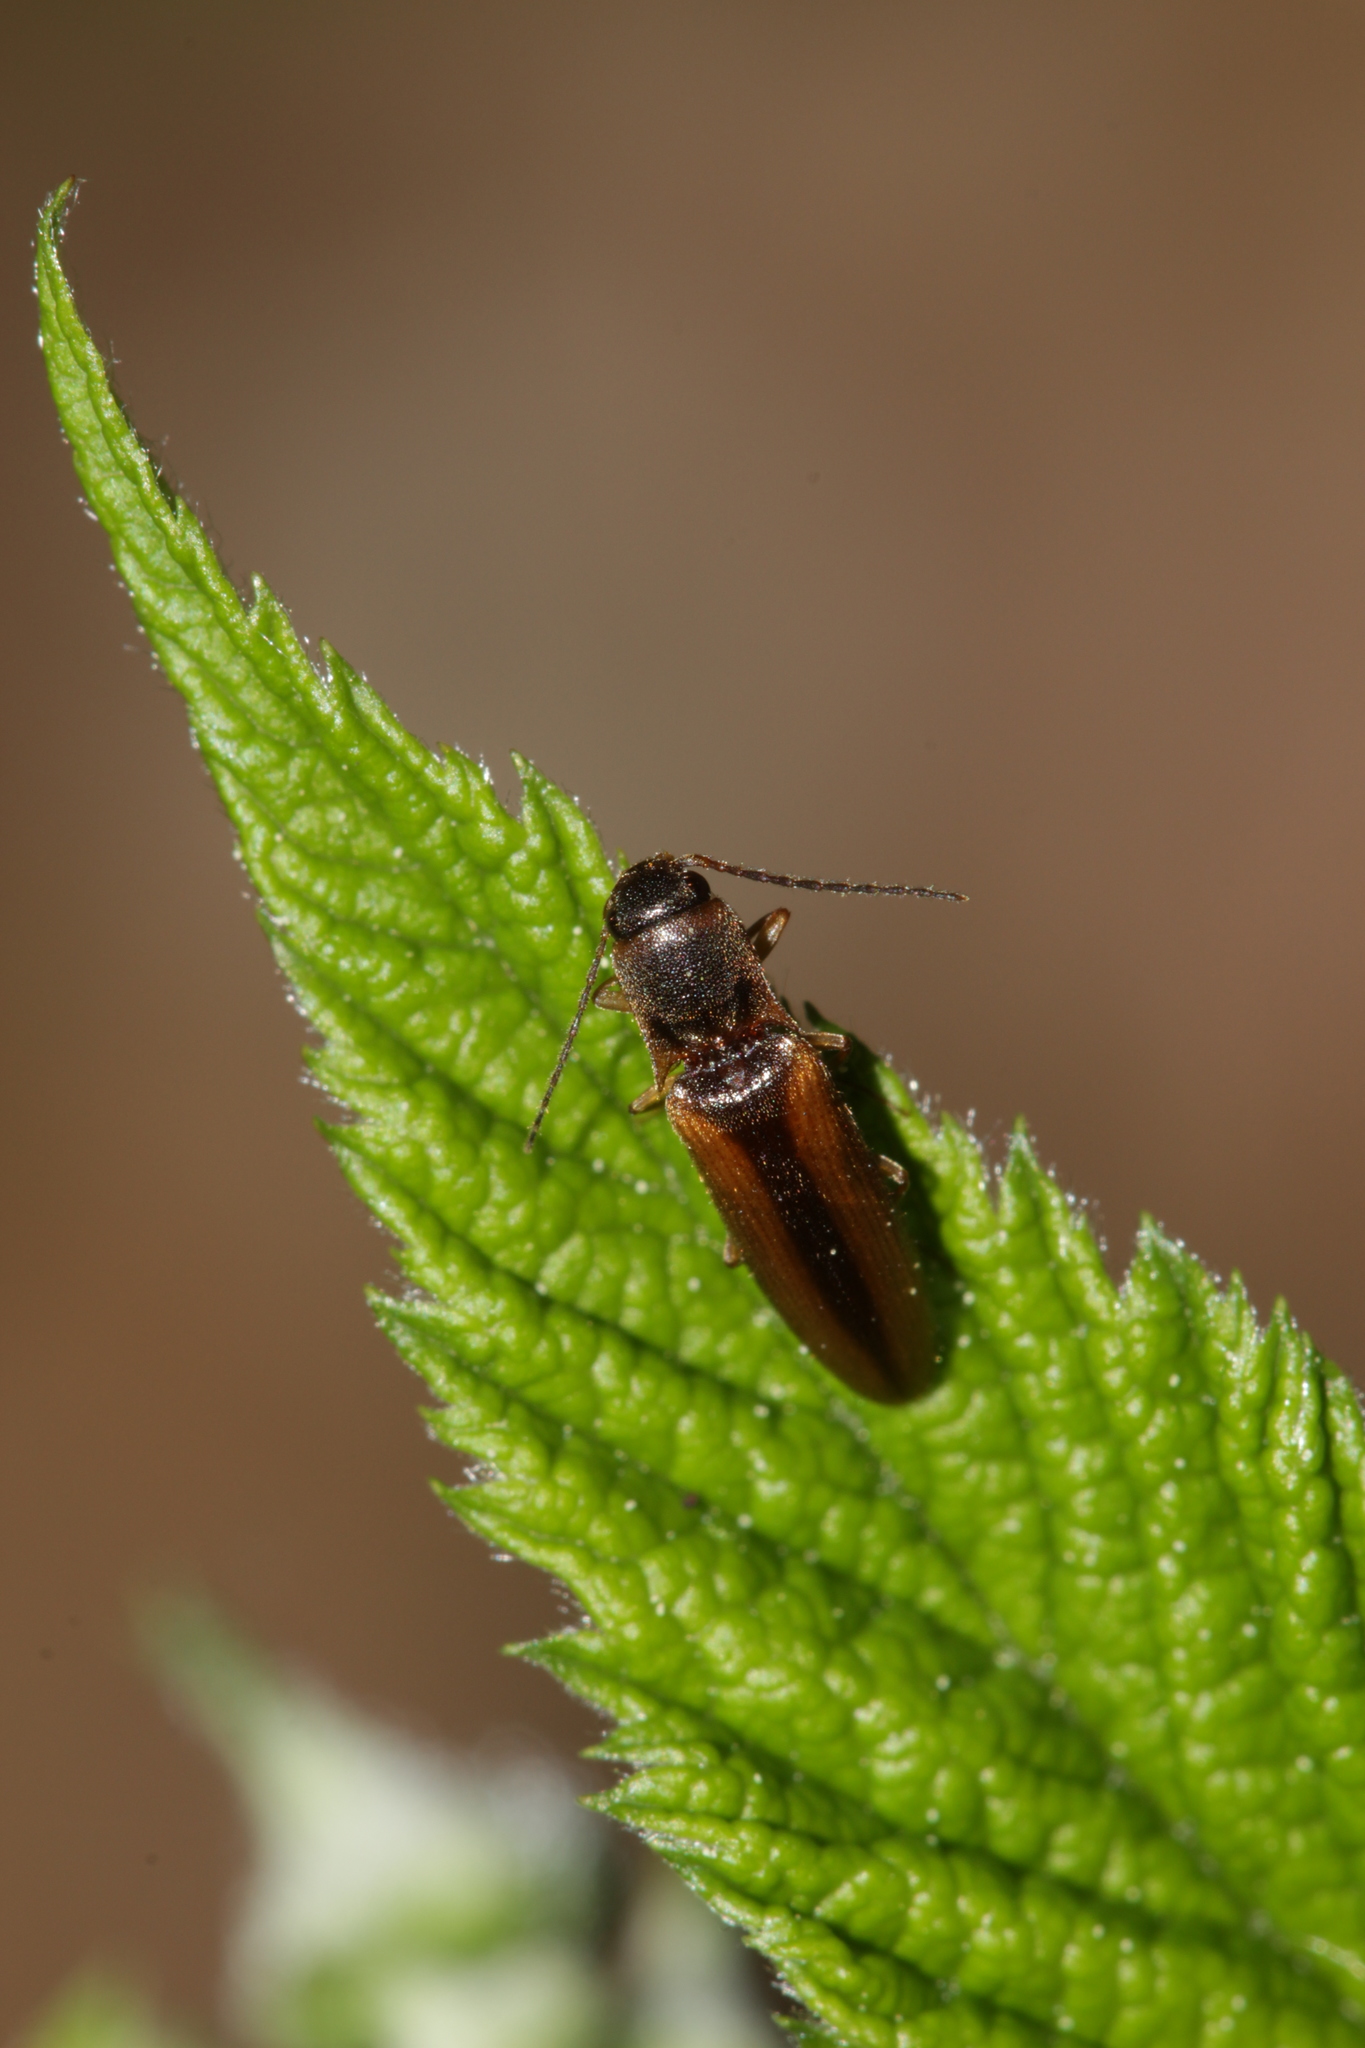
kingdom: Animalia
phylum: Arthropoda
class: Insecta
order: Coleoptera
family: Elateridae
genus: Dalopius
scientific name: Dalopius marginatus
